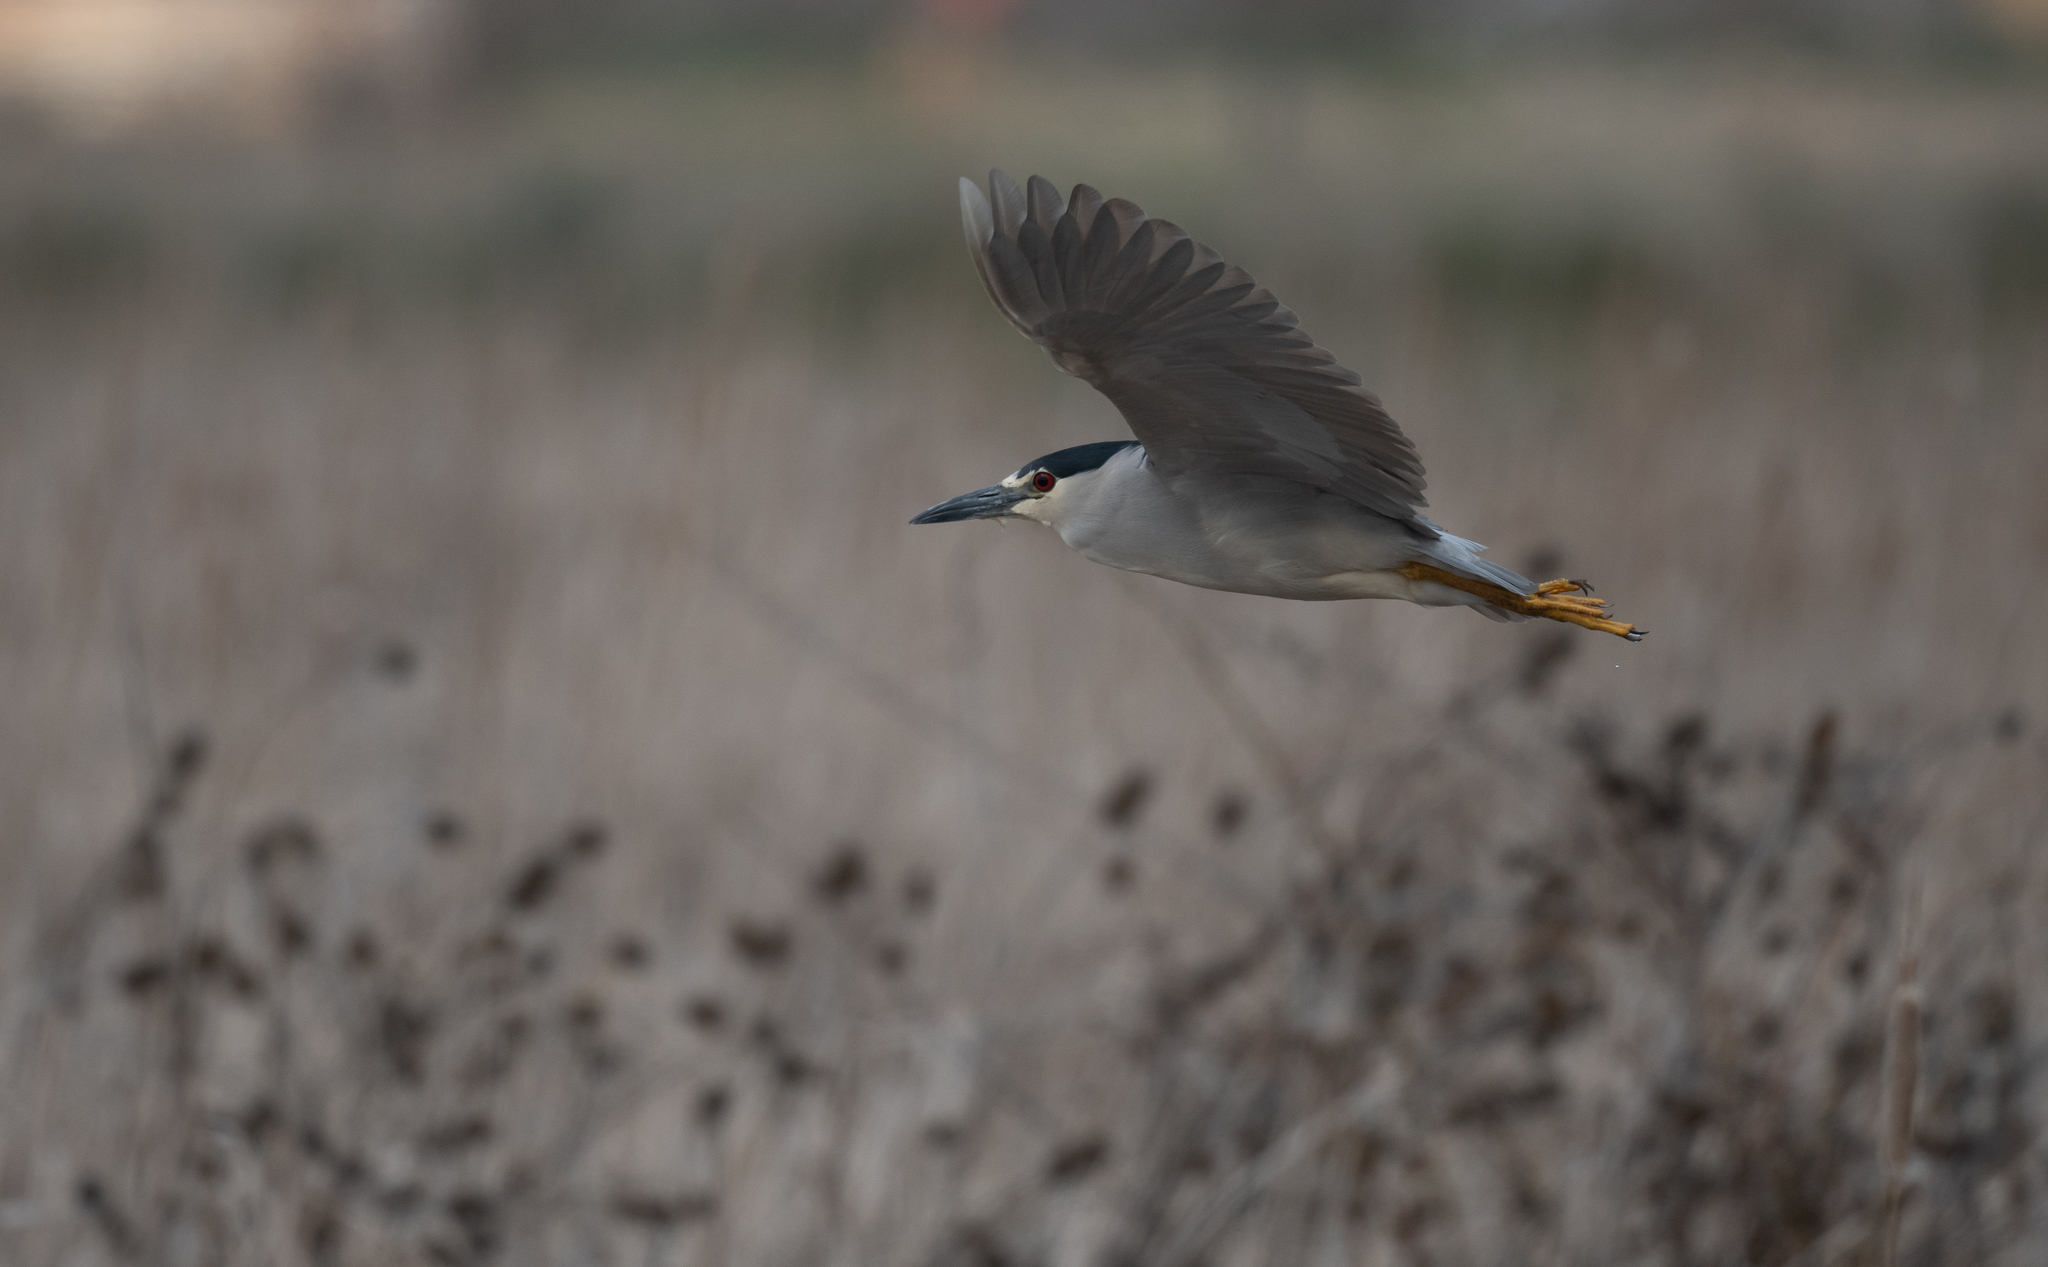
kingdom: Animalia
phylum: Chordata
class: Aves
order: Pelecaniformes
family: Ardeidae
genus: Nycticorax
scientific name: Nycticorax nycticorax
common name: Black-crowned night heron
